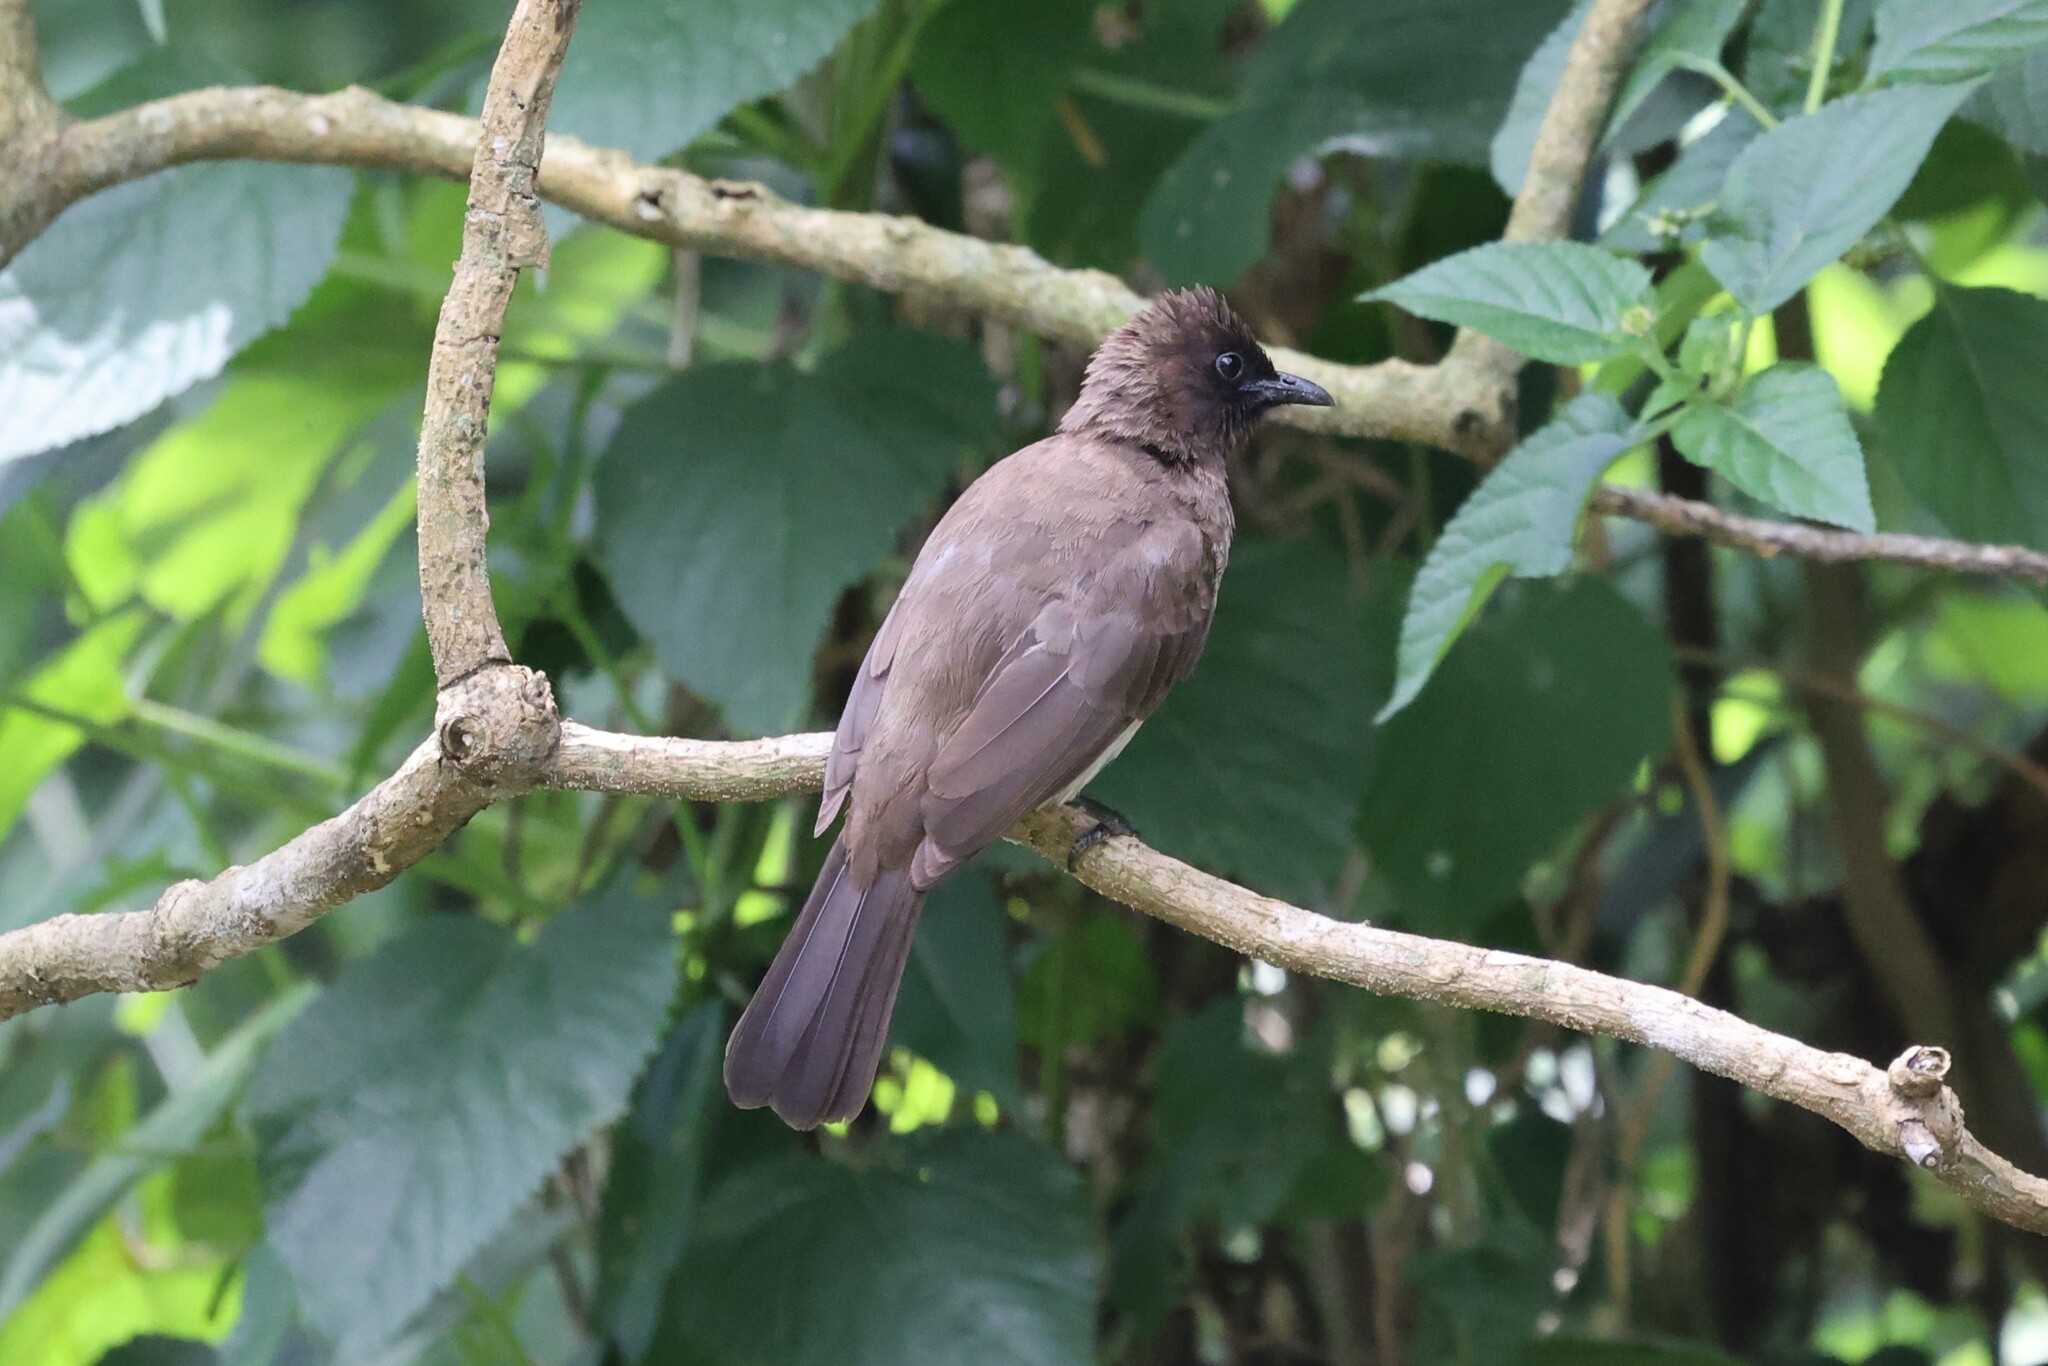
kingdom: Animalia
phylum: Chordata
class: Aves
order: Passeriformes
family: Pycnonotidae
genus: Pycnonotus
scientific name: Pycnonotus barbatus
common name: Common bulbul
